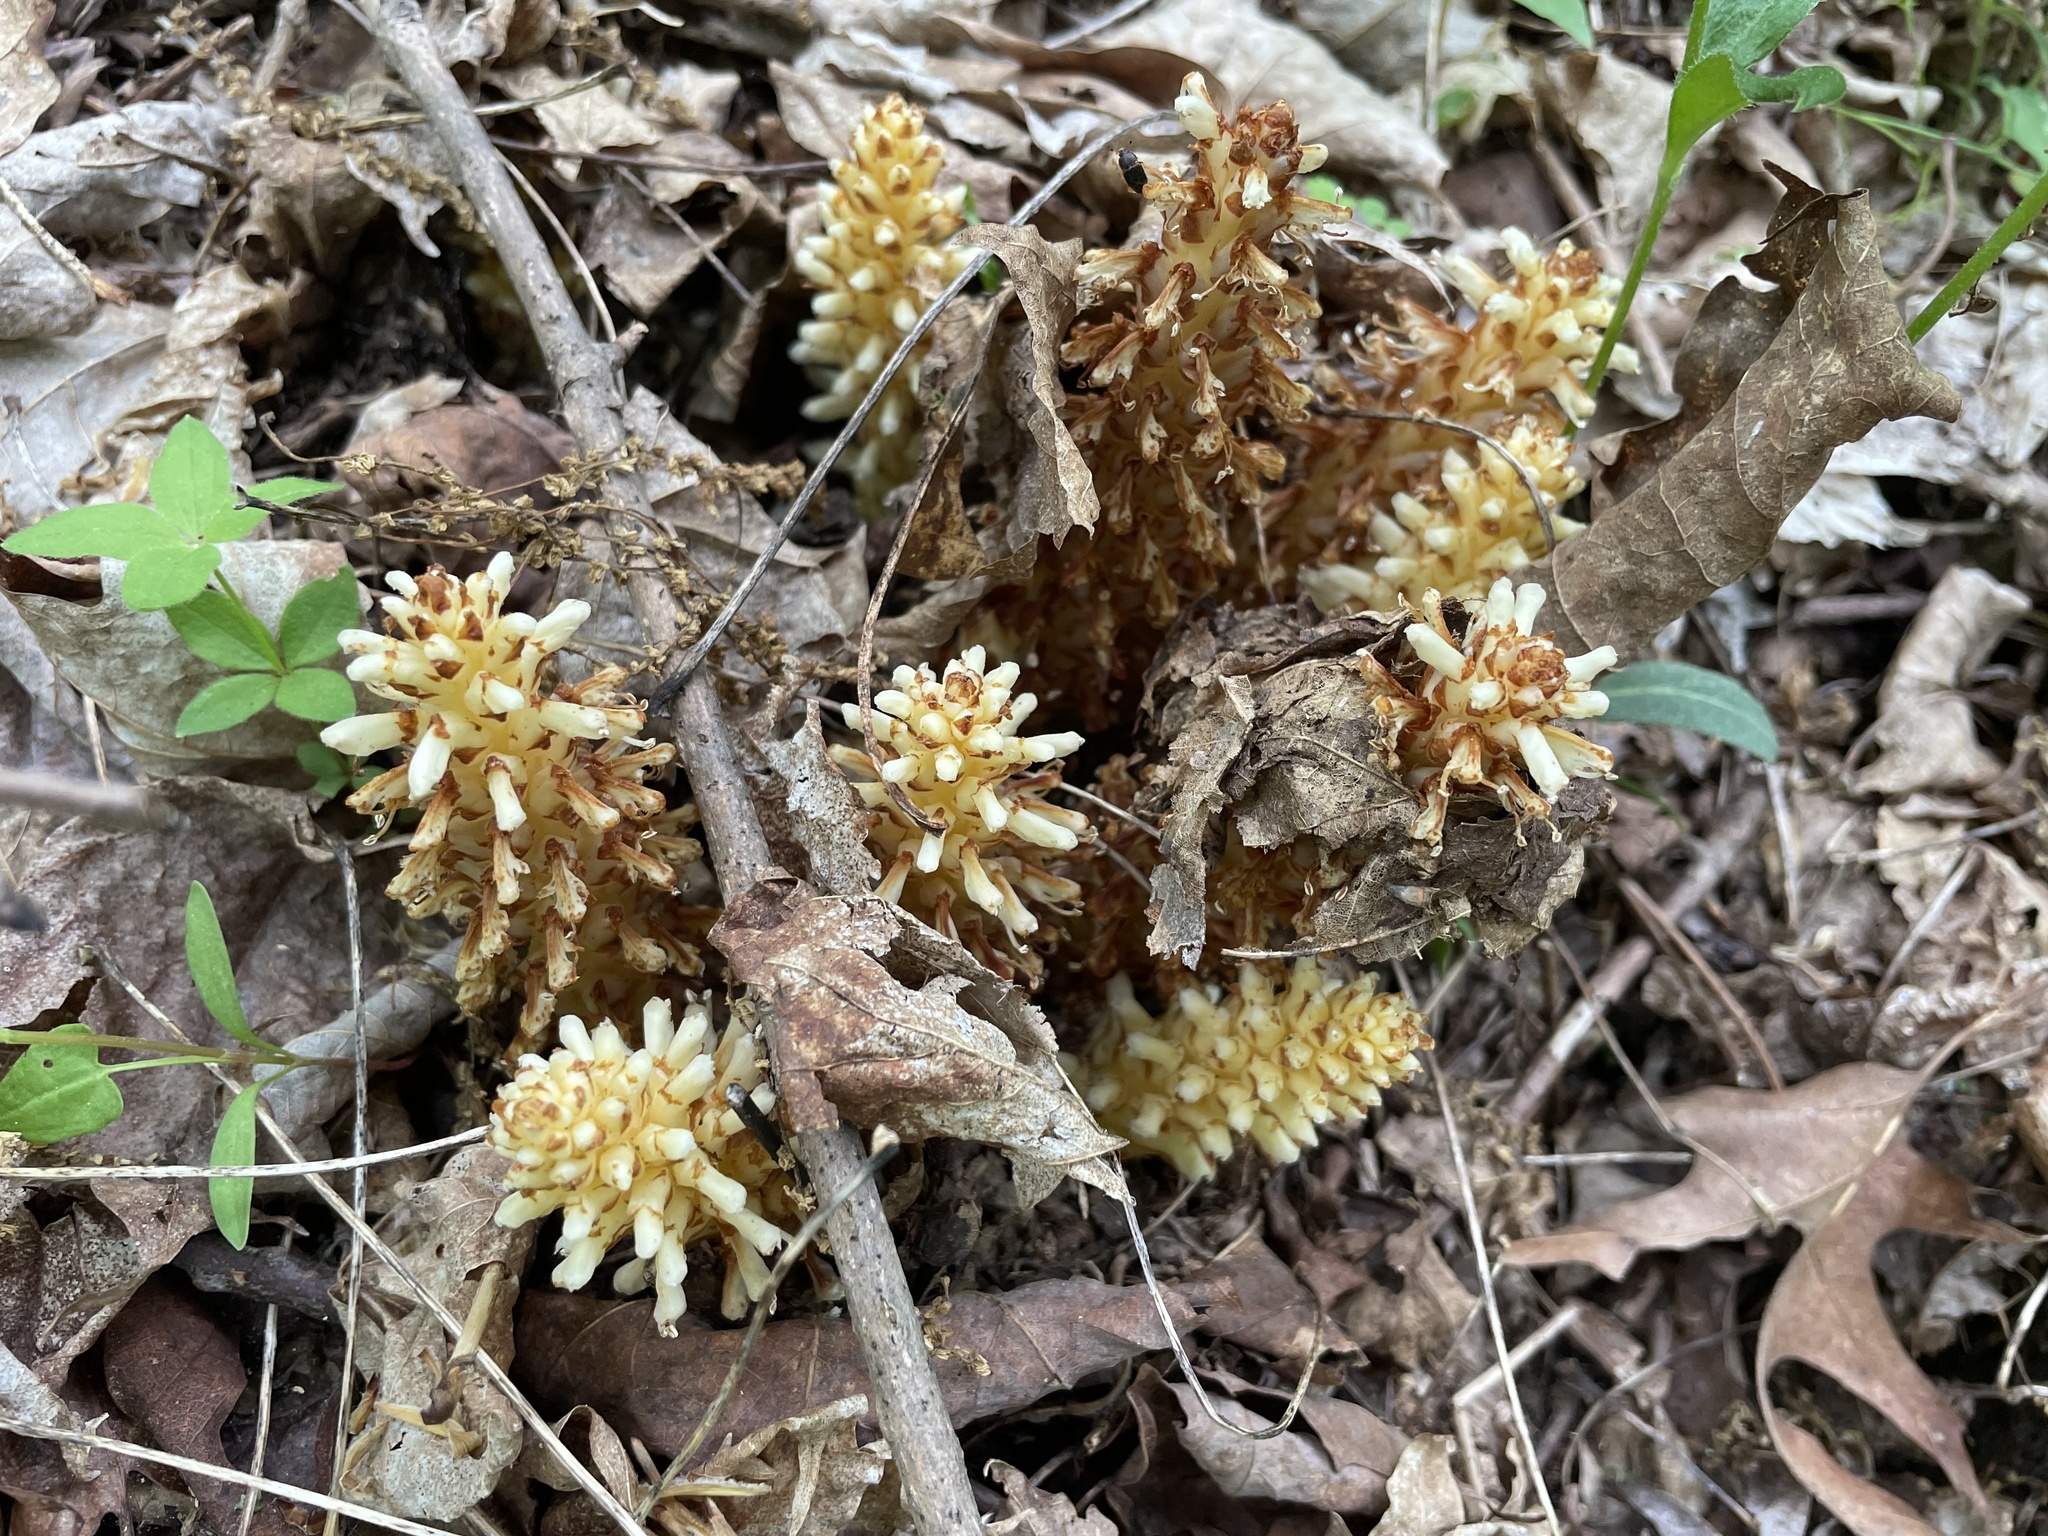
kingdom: Plantae
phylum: Tracheophyta
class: Magnoliopsida
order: Lamiales
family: Orobanchaceae
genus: Conopholis
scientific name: Conopholis americana
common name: American cancer-root
